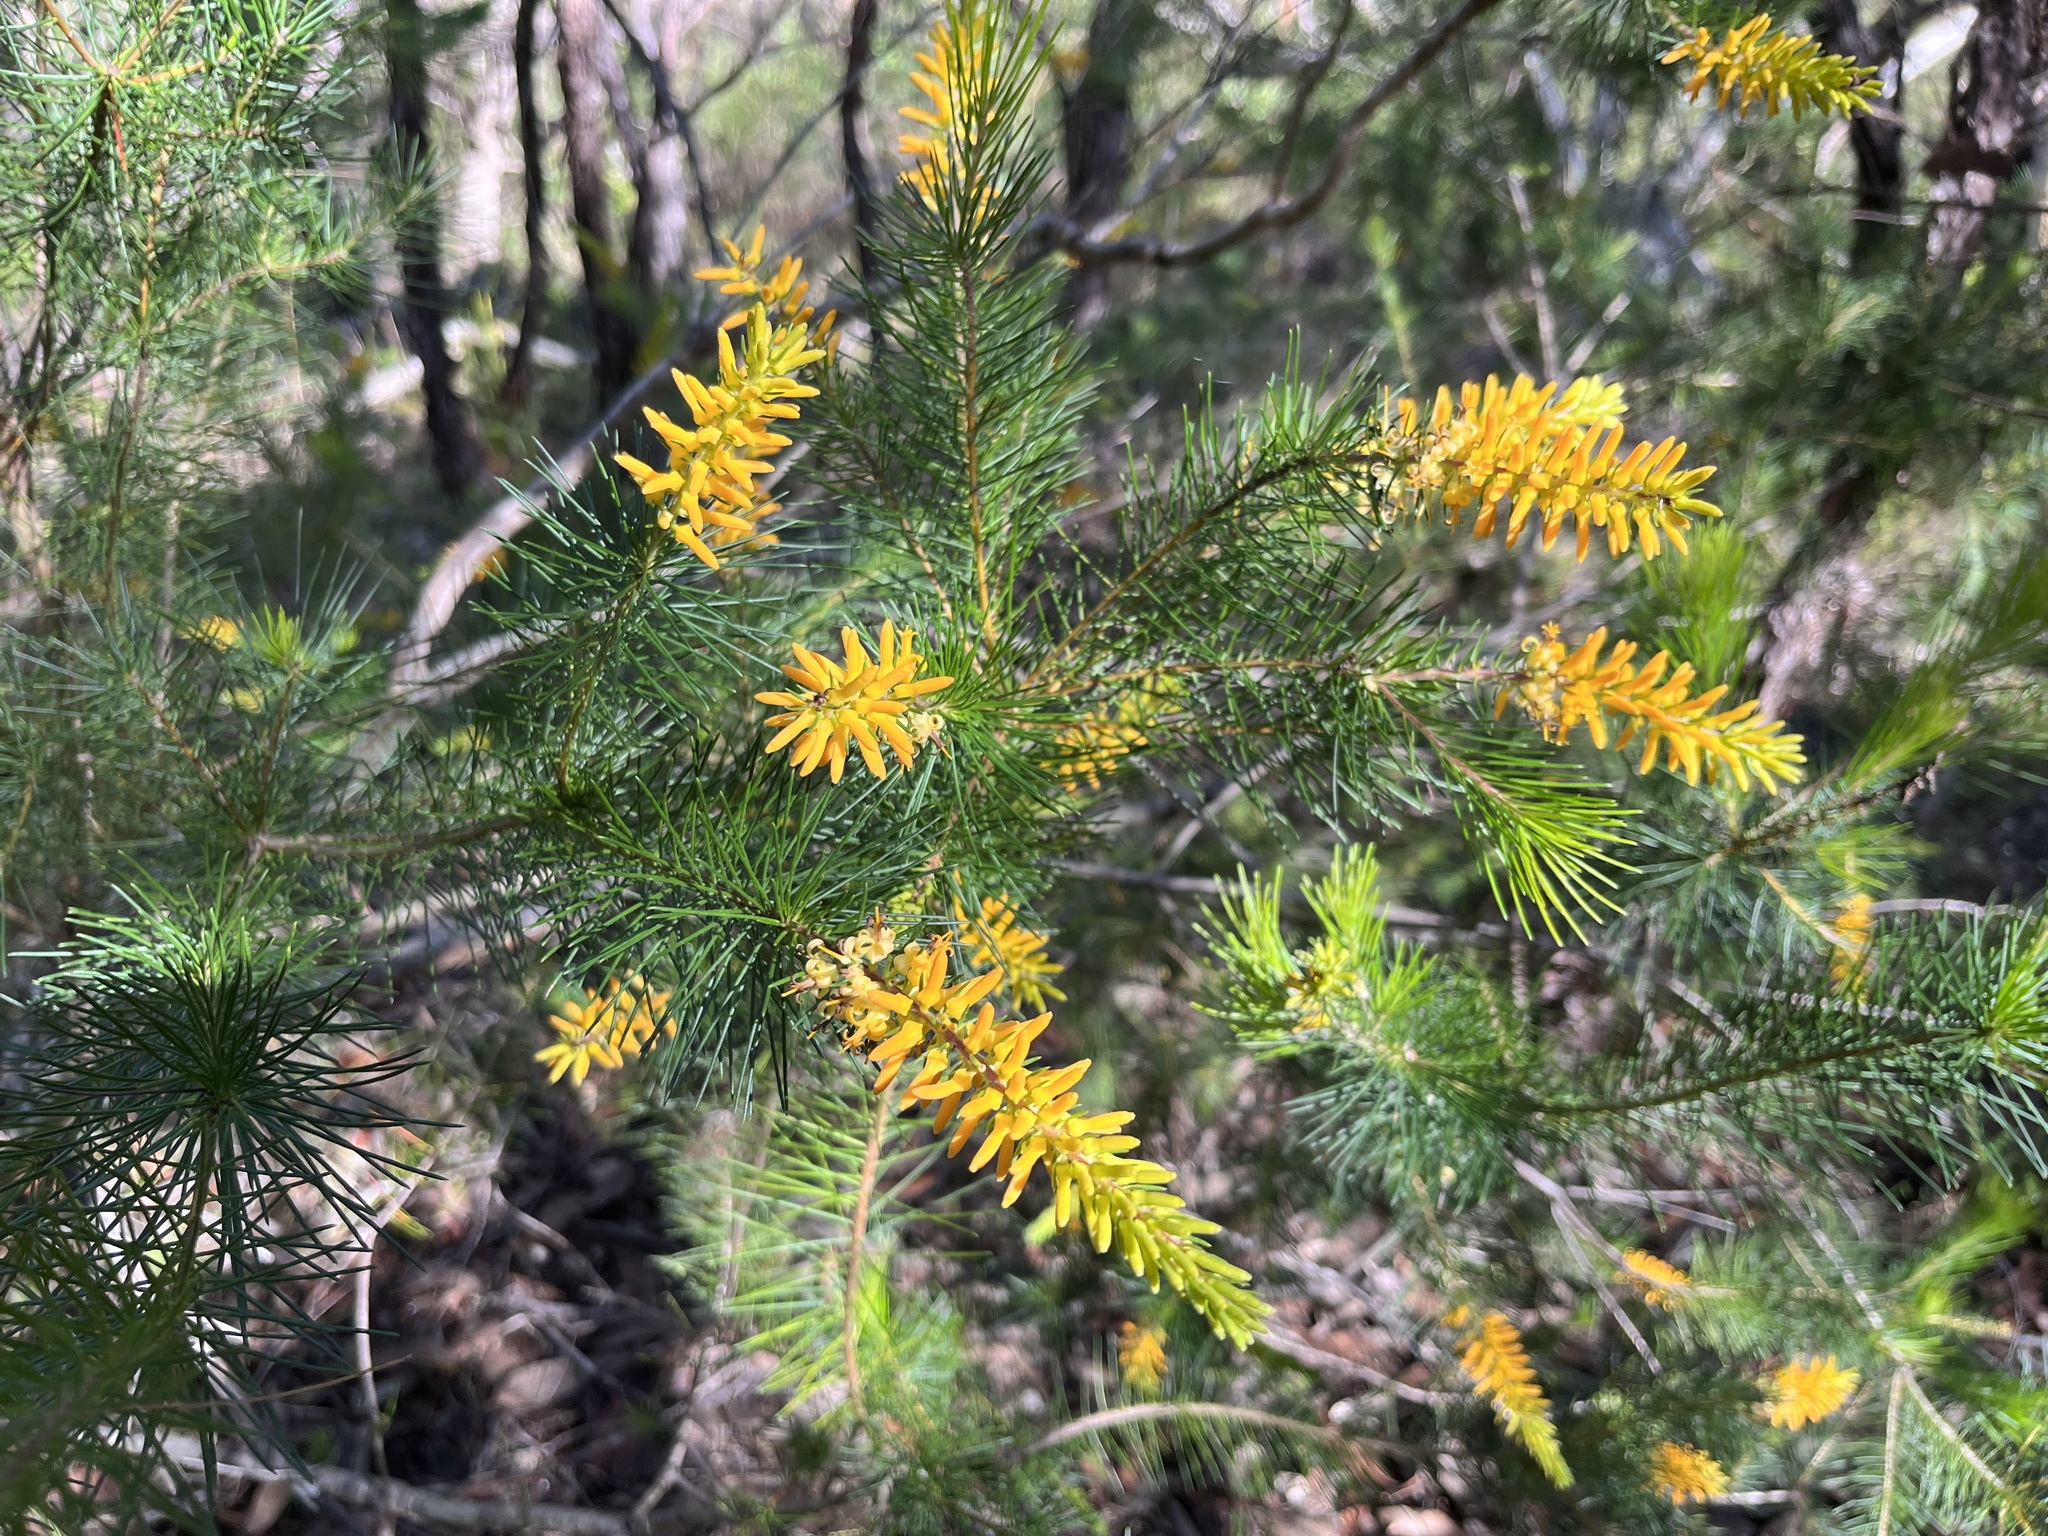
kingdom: Plantae
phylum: Tracheophyta
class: Magnoliopsida
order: Proteales
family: Proteaceae
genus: Persoonia
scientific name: Persoonia pinifolia
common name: Pine-leaf geebung
